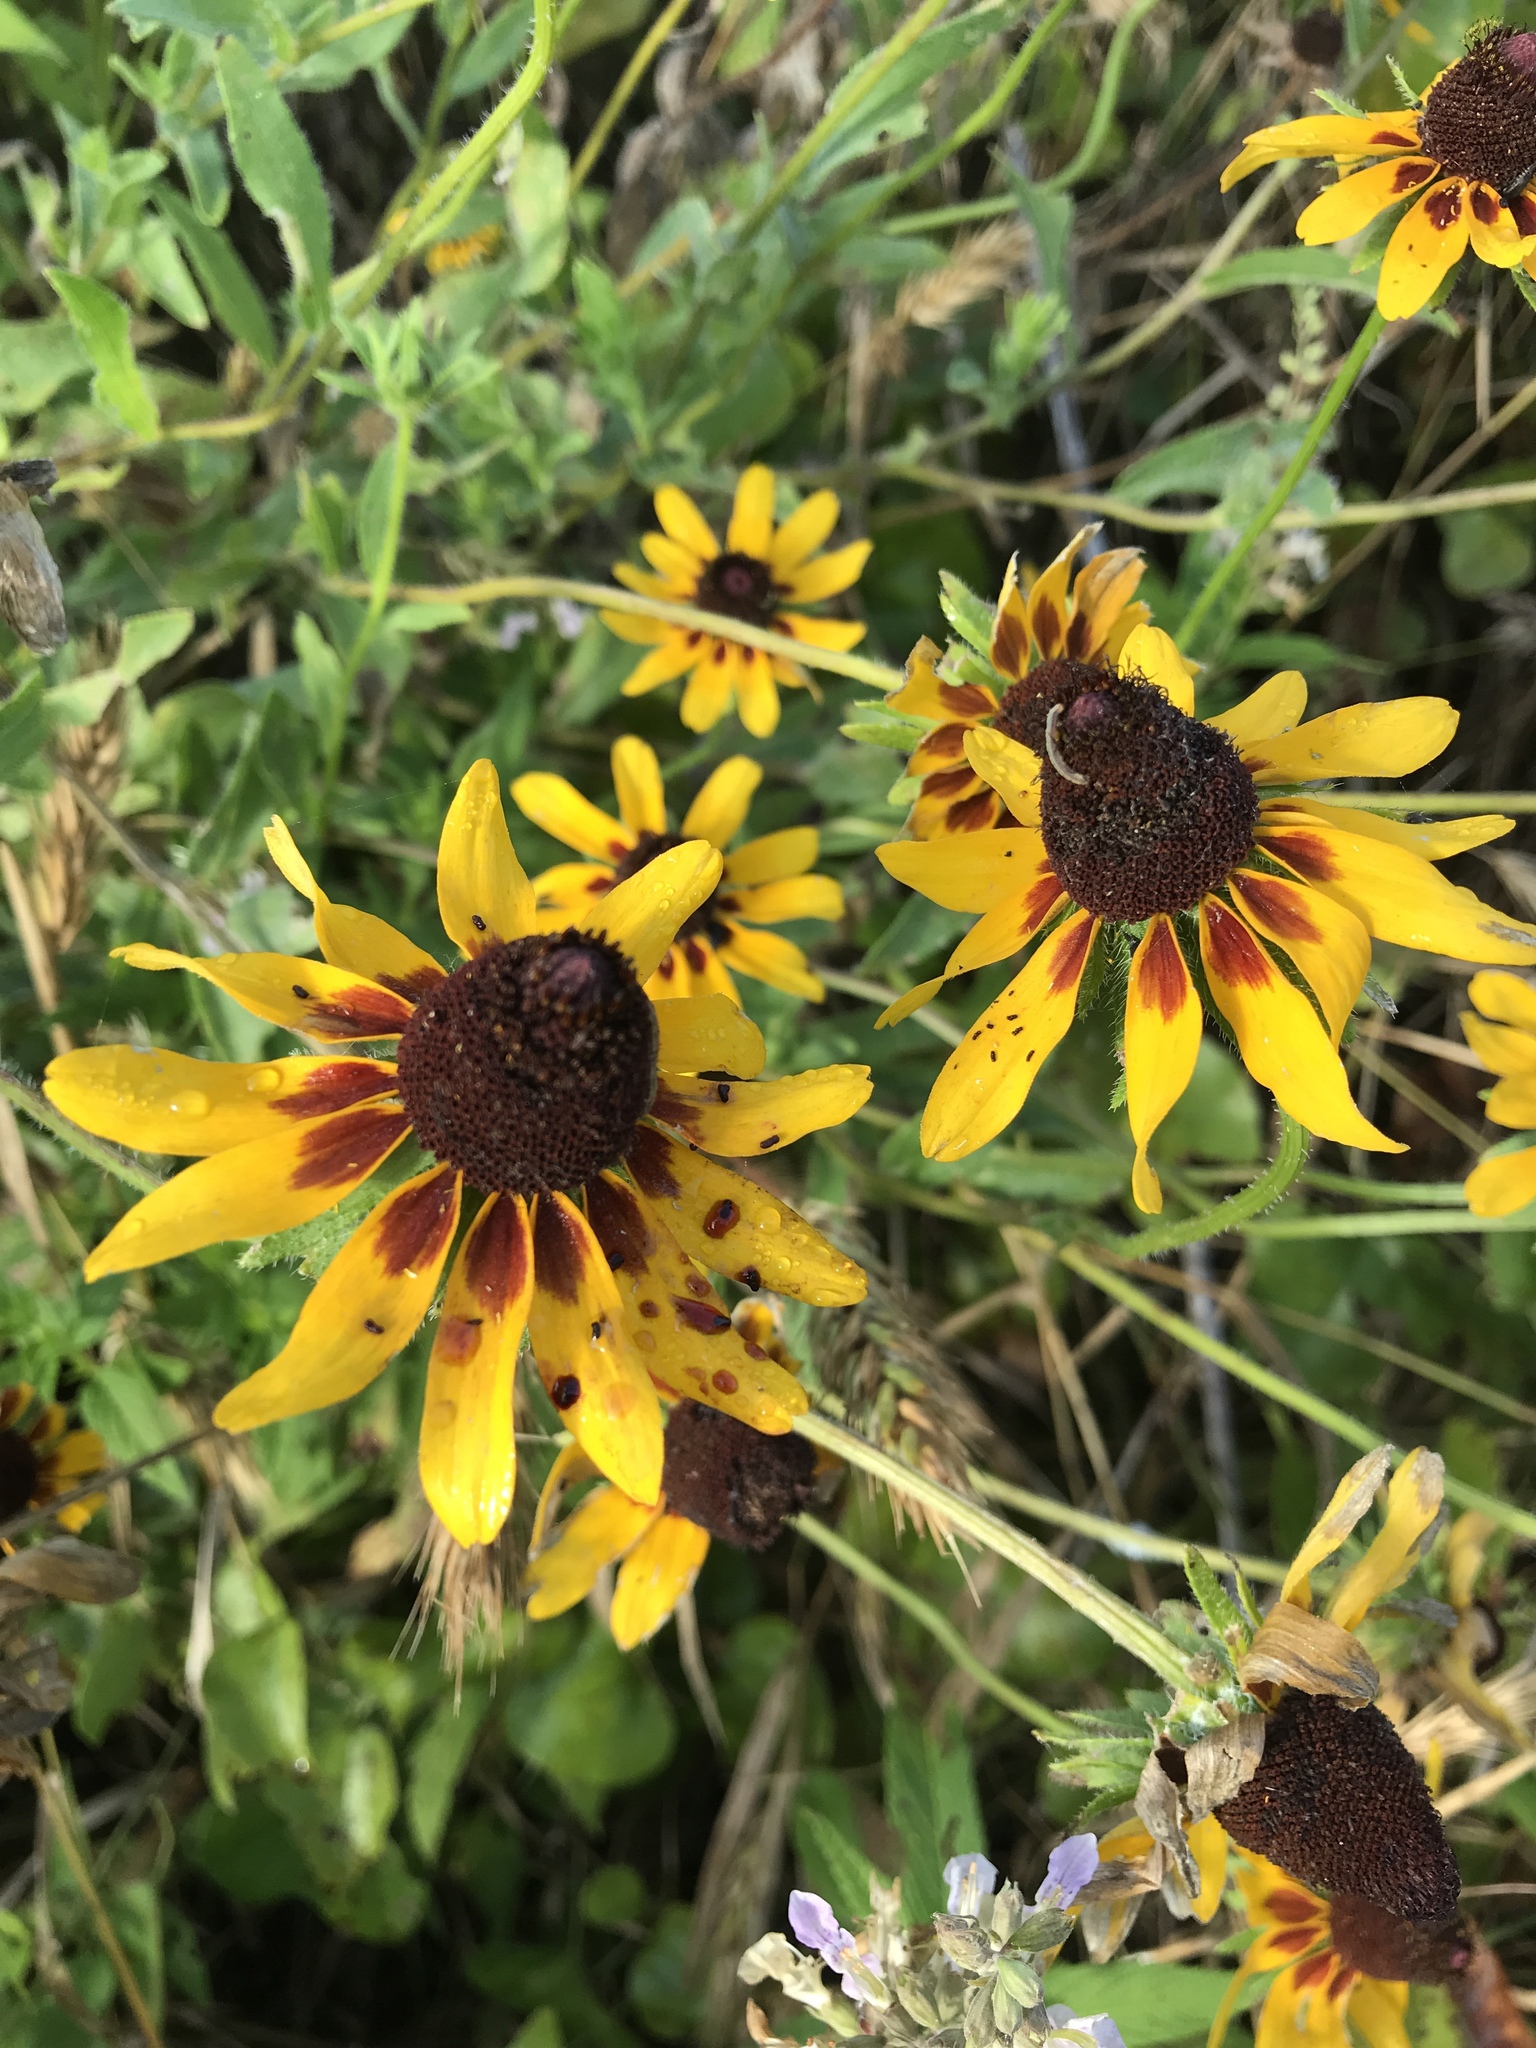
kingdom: Plantae
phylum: Tracheophyta
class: Magnoliopsida
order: Asterales
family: Asteraceae
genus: Rudbeckia
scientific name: Rudbeckia hirta
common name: Black-eyed-susan
